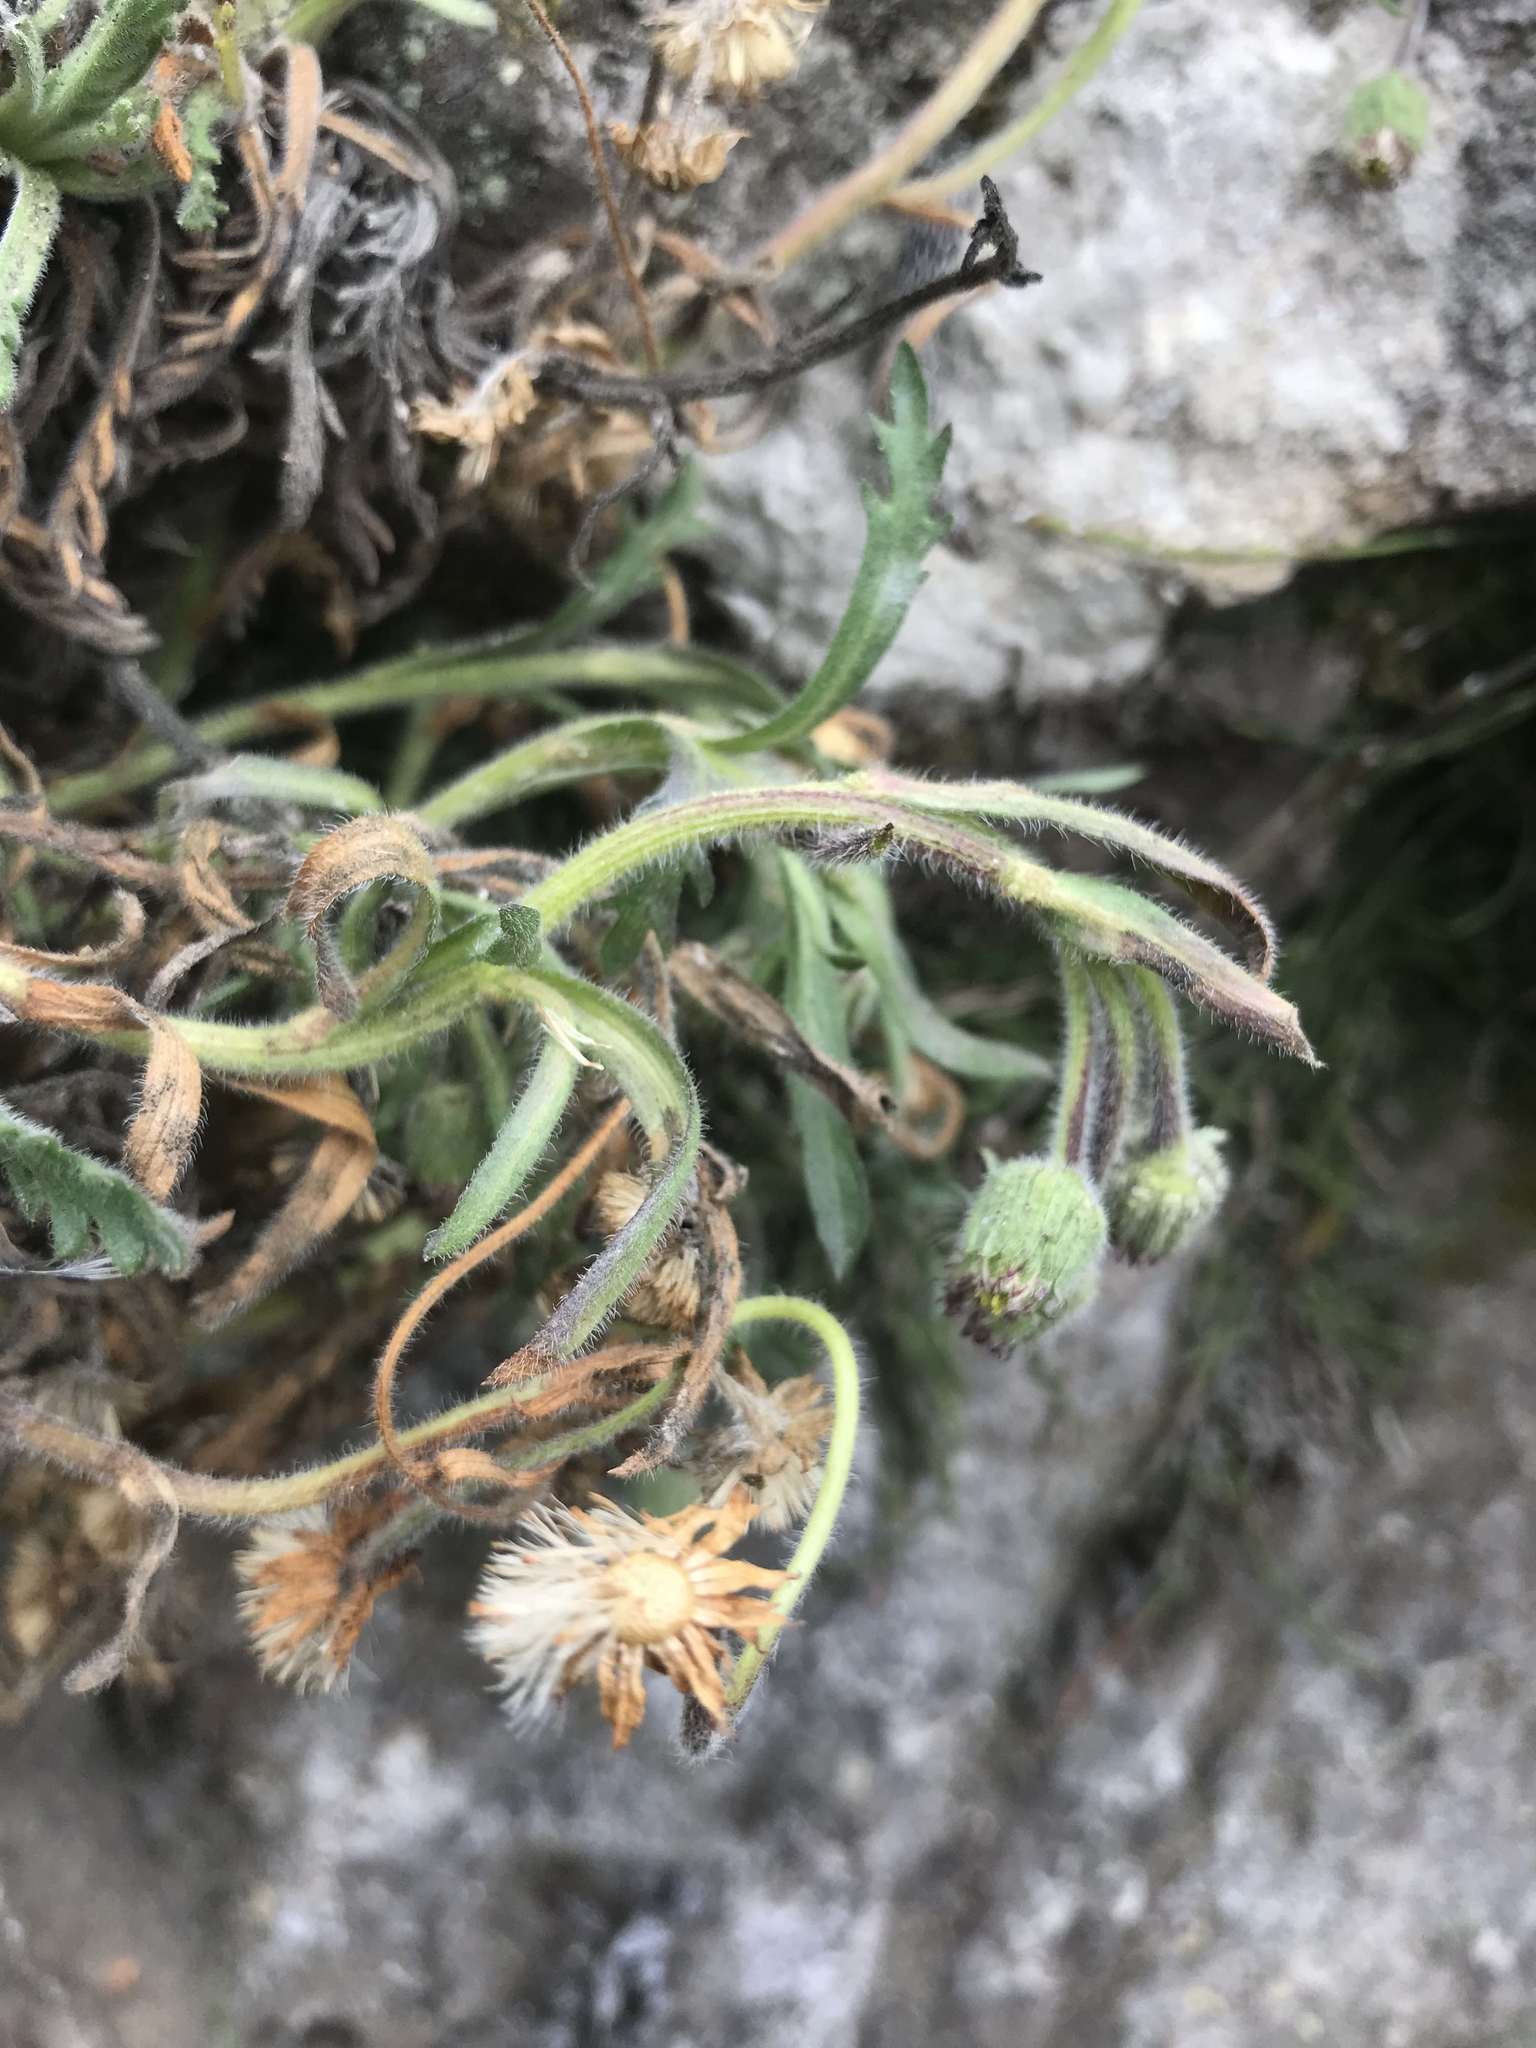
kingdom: Plantae
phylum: Tracheophyta
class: Magnoliopsida
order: Asterales
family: Asteraceae
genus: Erigeron
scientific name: Erigeron cardaminifolius
